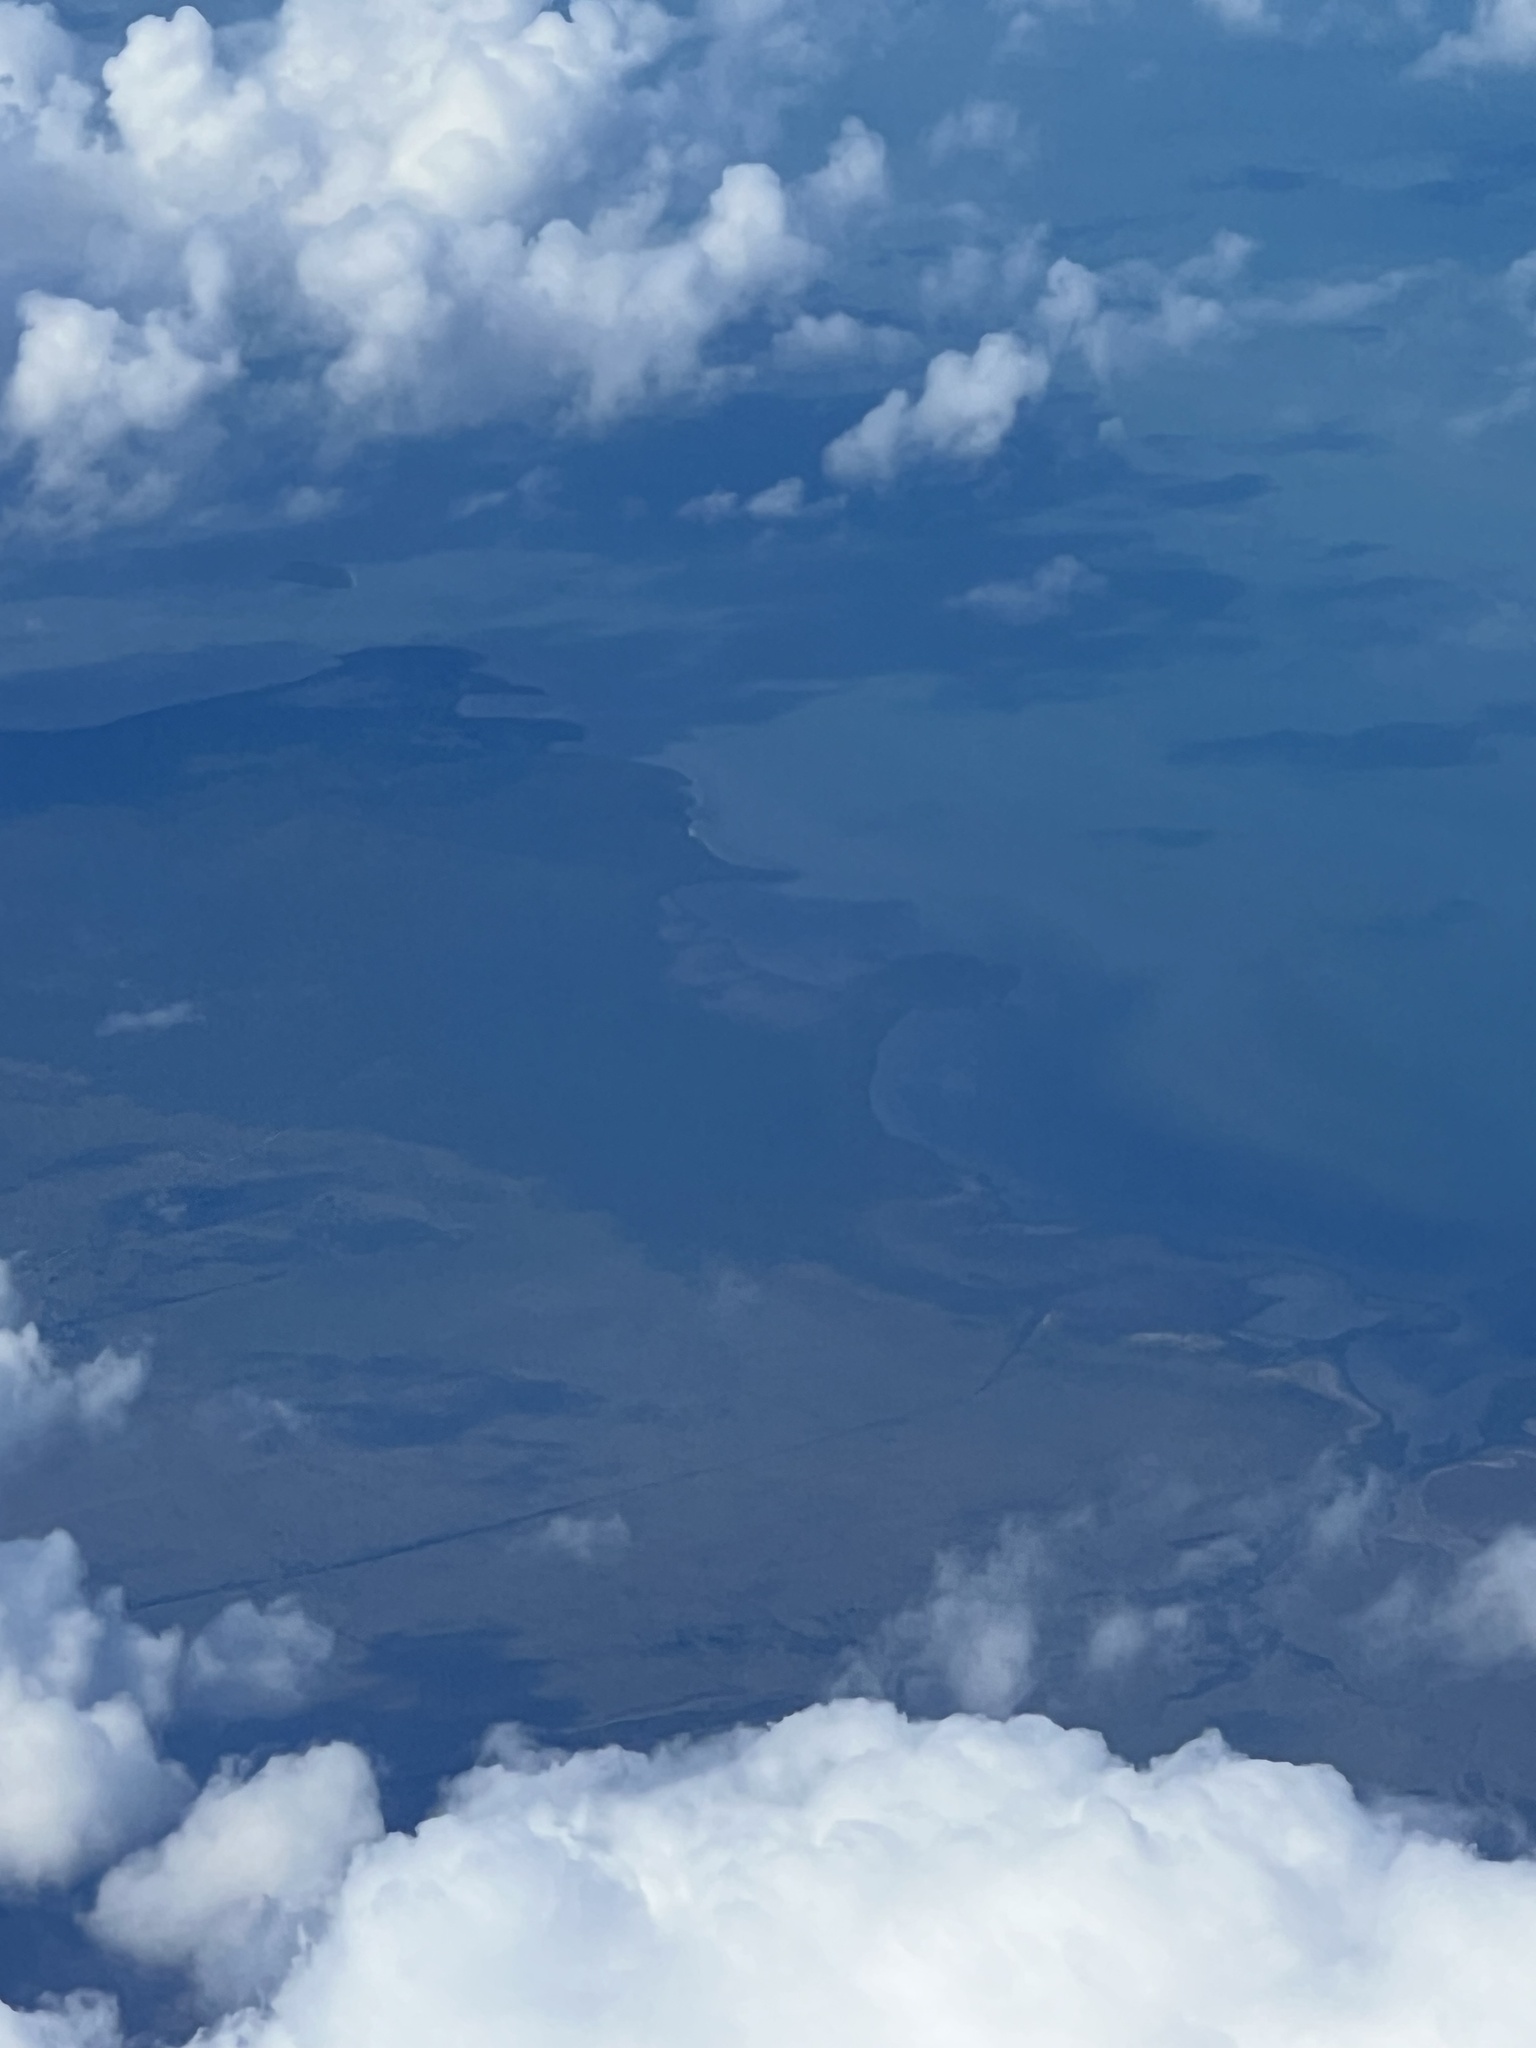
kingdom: Plantae
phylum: Tracheophyta
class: Magnoliopsida
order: Malpighiales
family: Rhizophoraceae
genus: Rhizophora
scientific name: Rhizophora mangle
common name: Red mangrove
